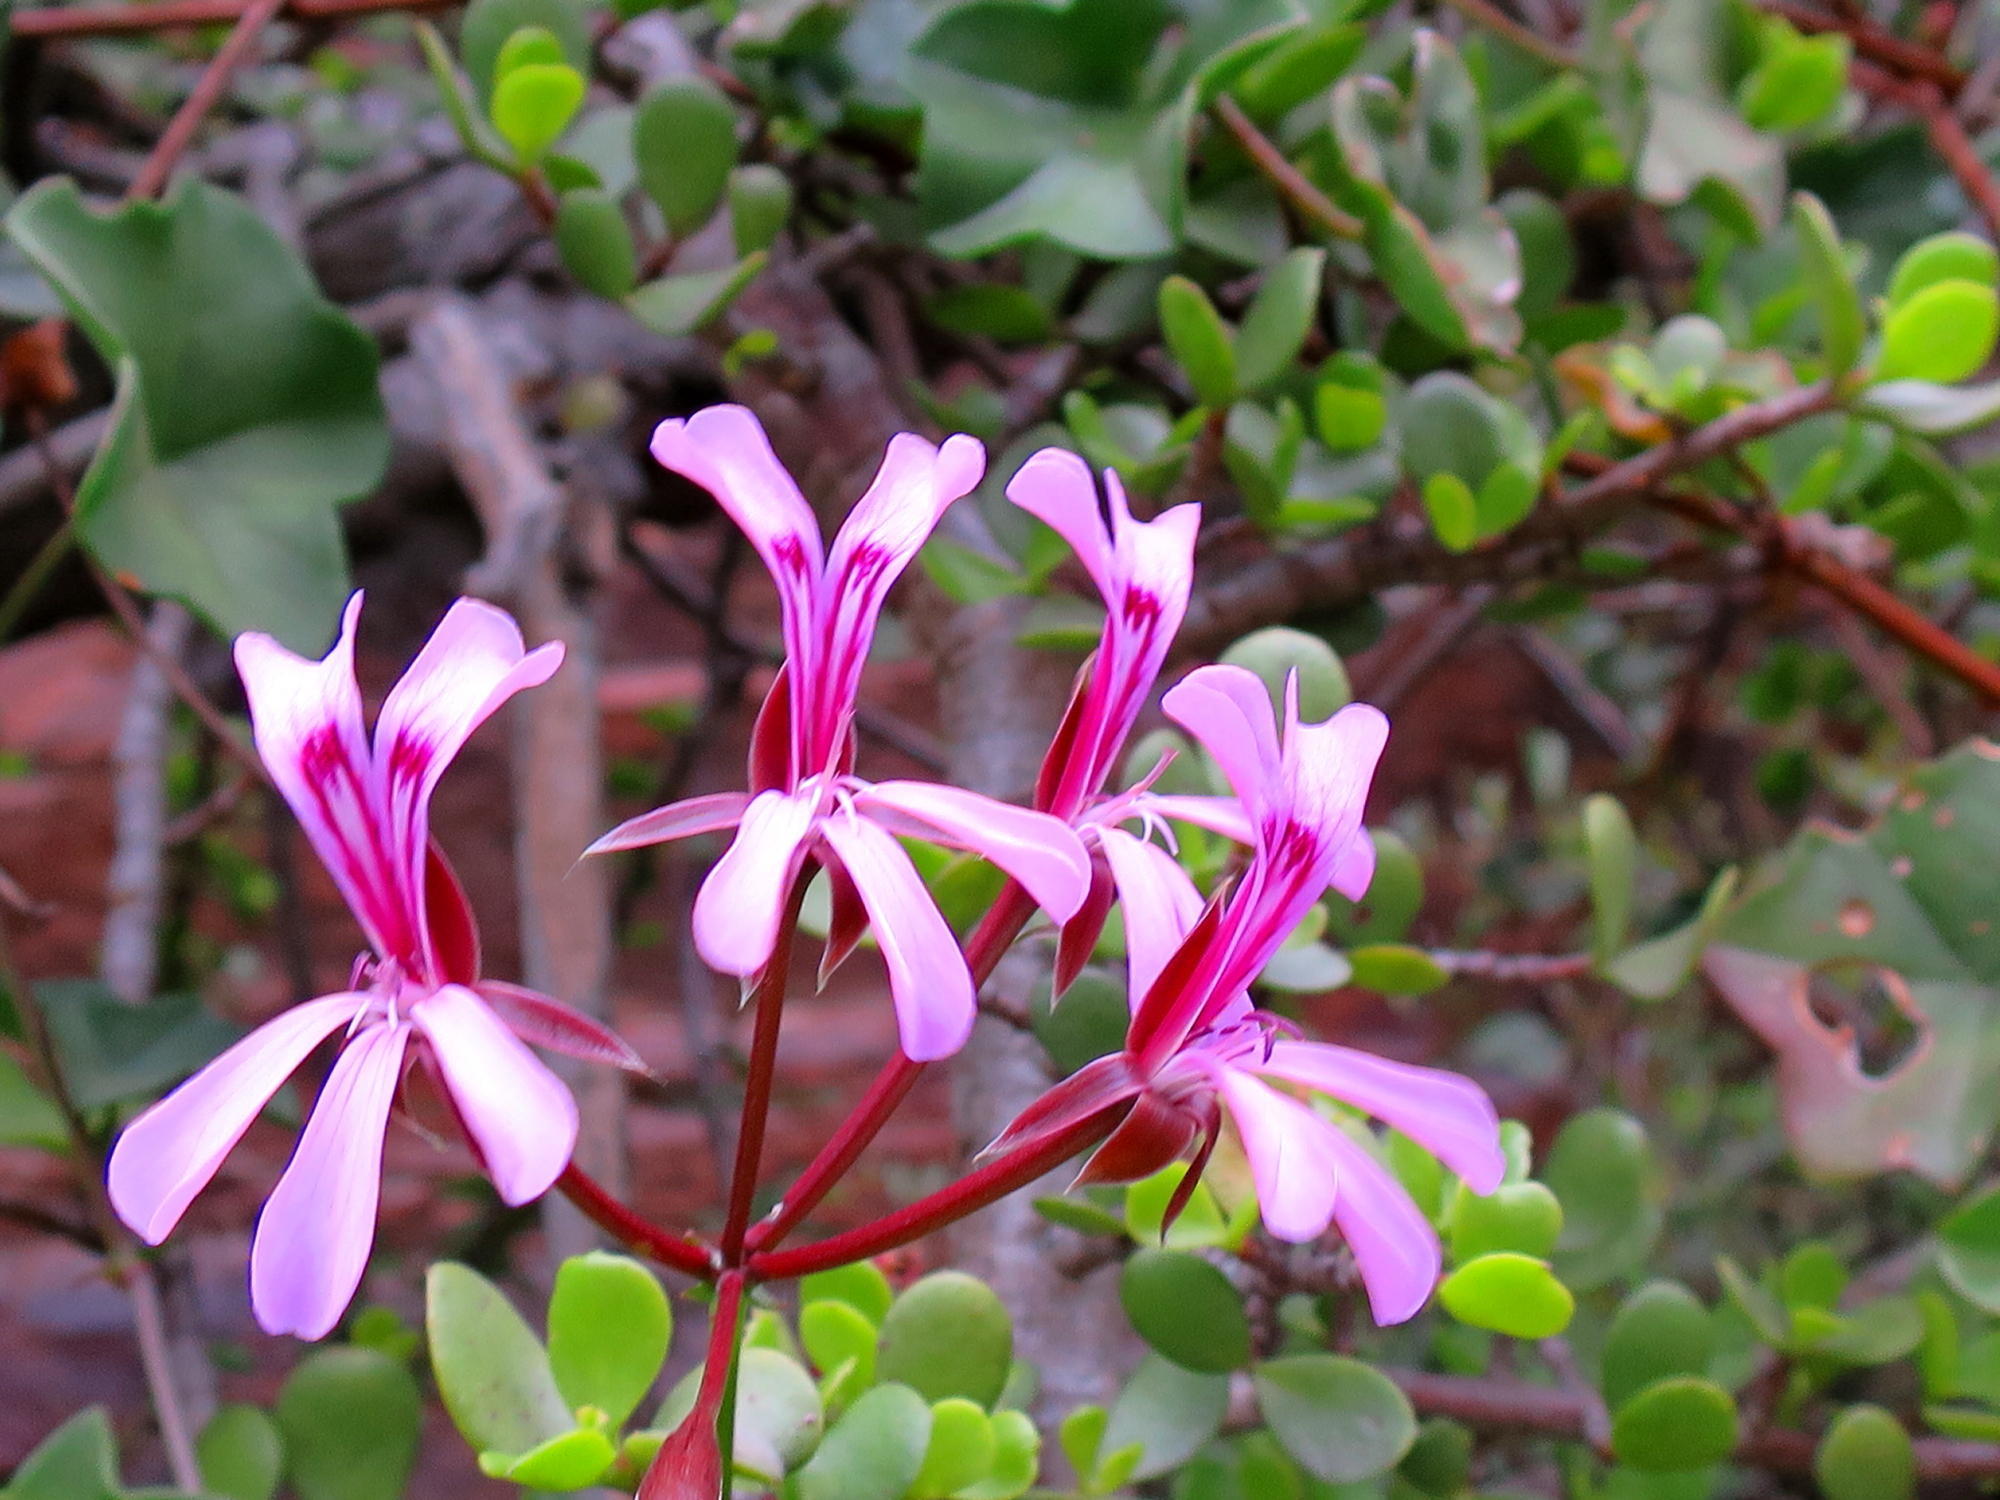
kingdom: Plantae
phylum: Tracheophyta
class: Magnoliopsida
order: Geraniales
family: Geraniaceae
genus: Pelargonium
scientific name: Pelargonium peltatum
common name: Ivyleaf geranium
